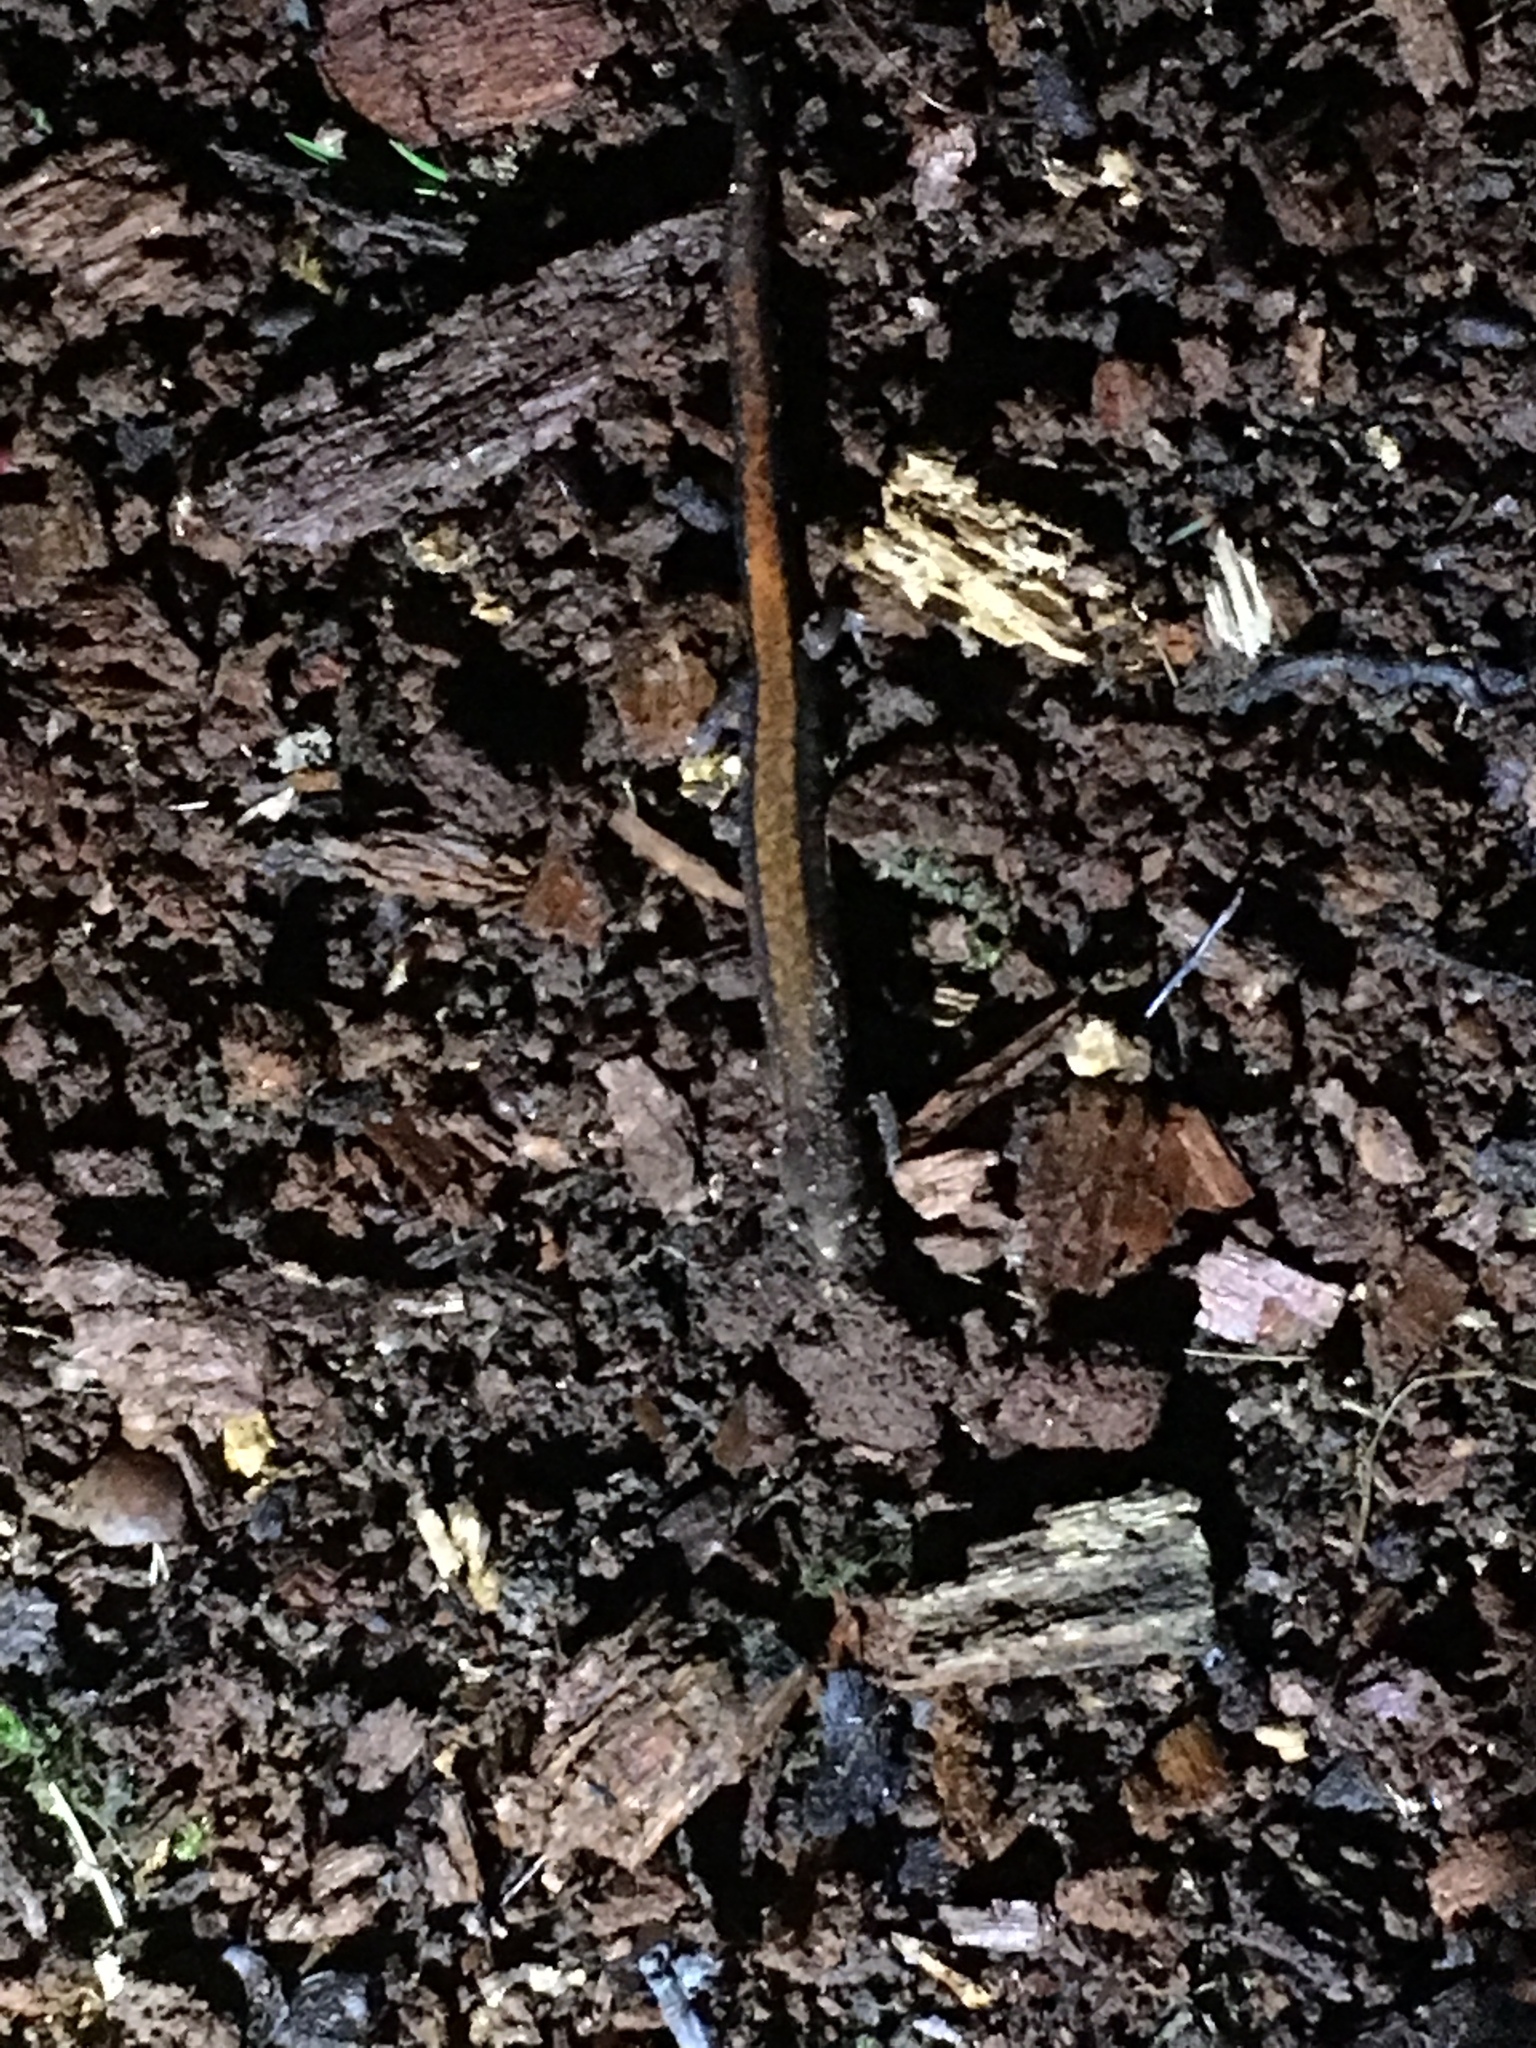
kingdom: Animalia
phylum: Chordata
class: Amphibia
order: Caudata
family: Plethodontidae
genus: Plethodon
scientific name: Plethodon cinereus
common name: Redback salamander
